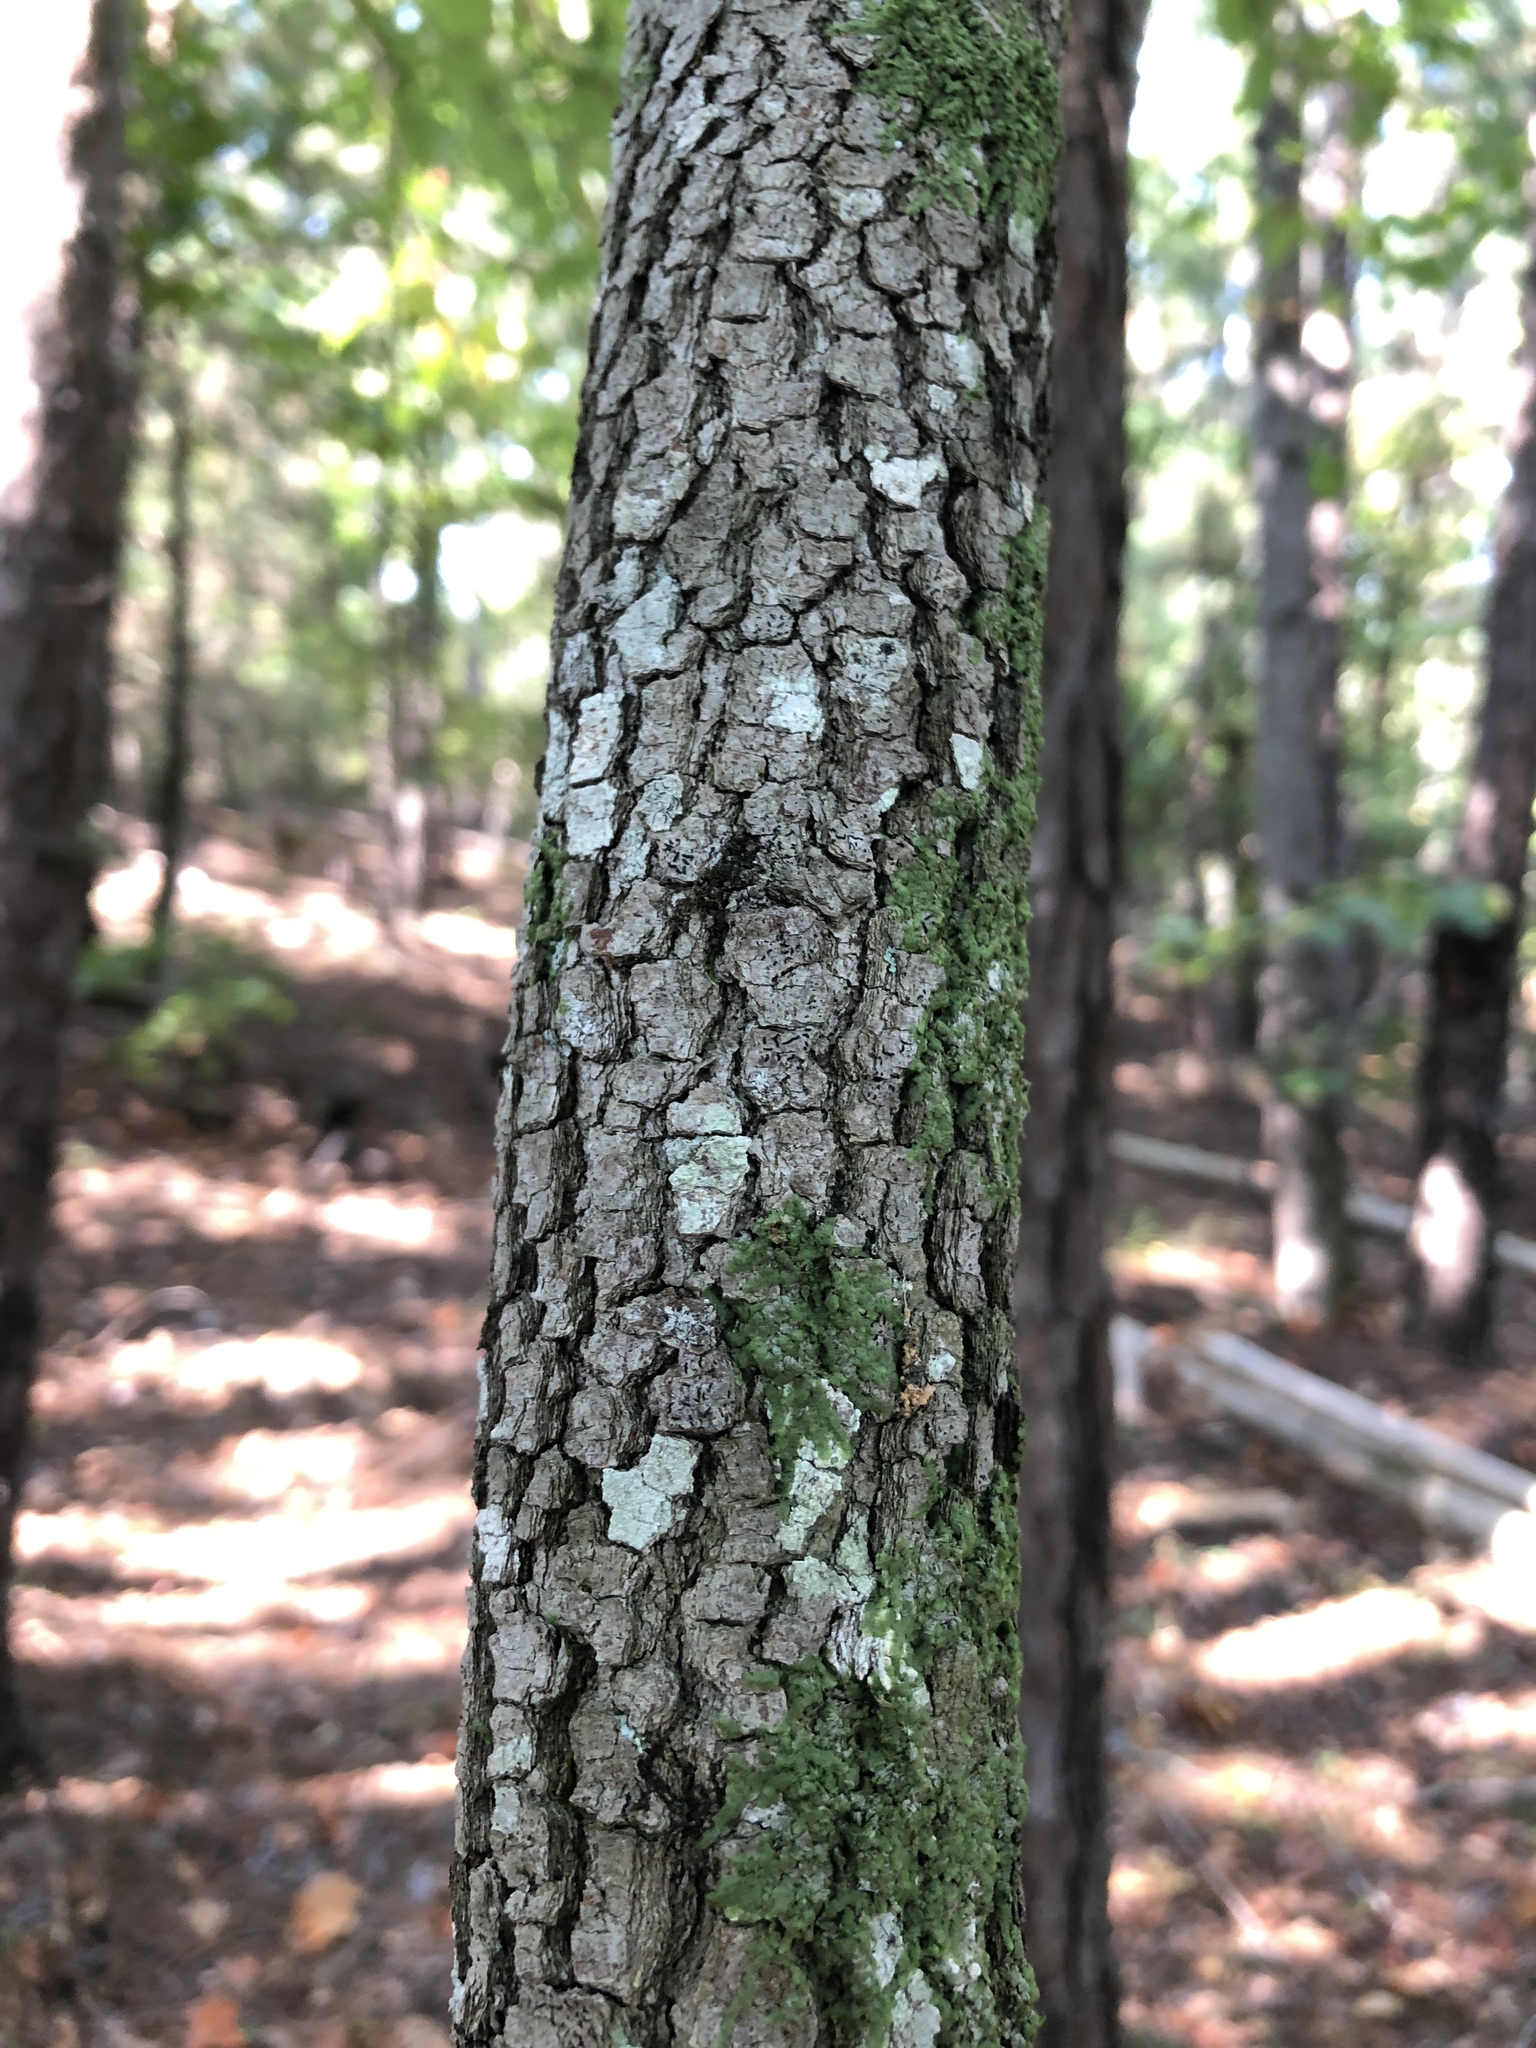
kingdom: Plantae
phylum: Tracheophyta
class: Magnoliopsida
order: Cornales
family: Cornaceae
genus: Cornus
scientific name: Cornus florida
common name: Flowering dogwood
